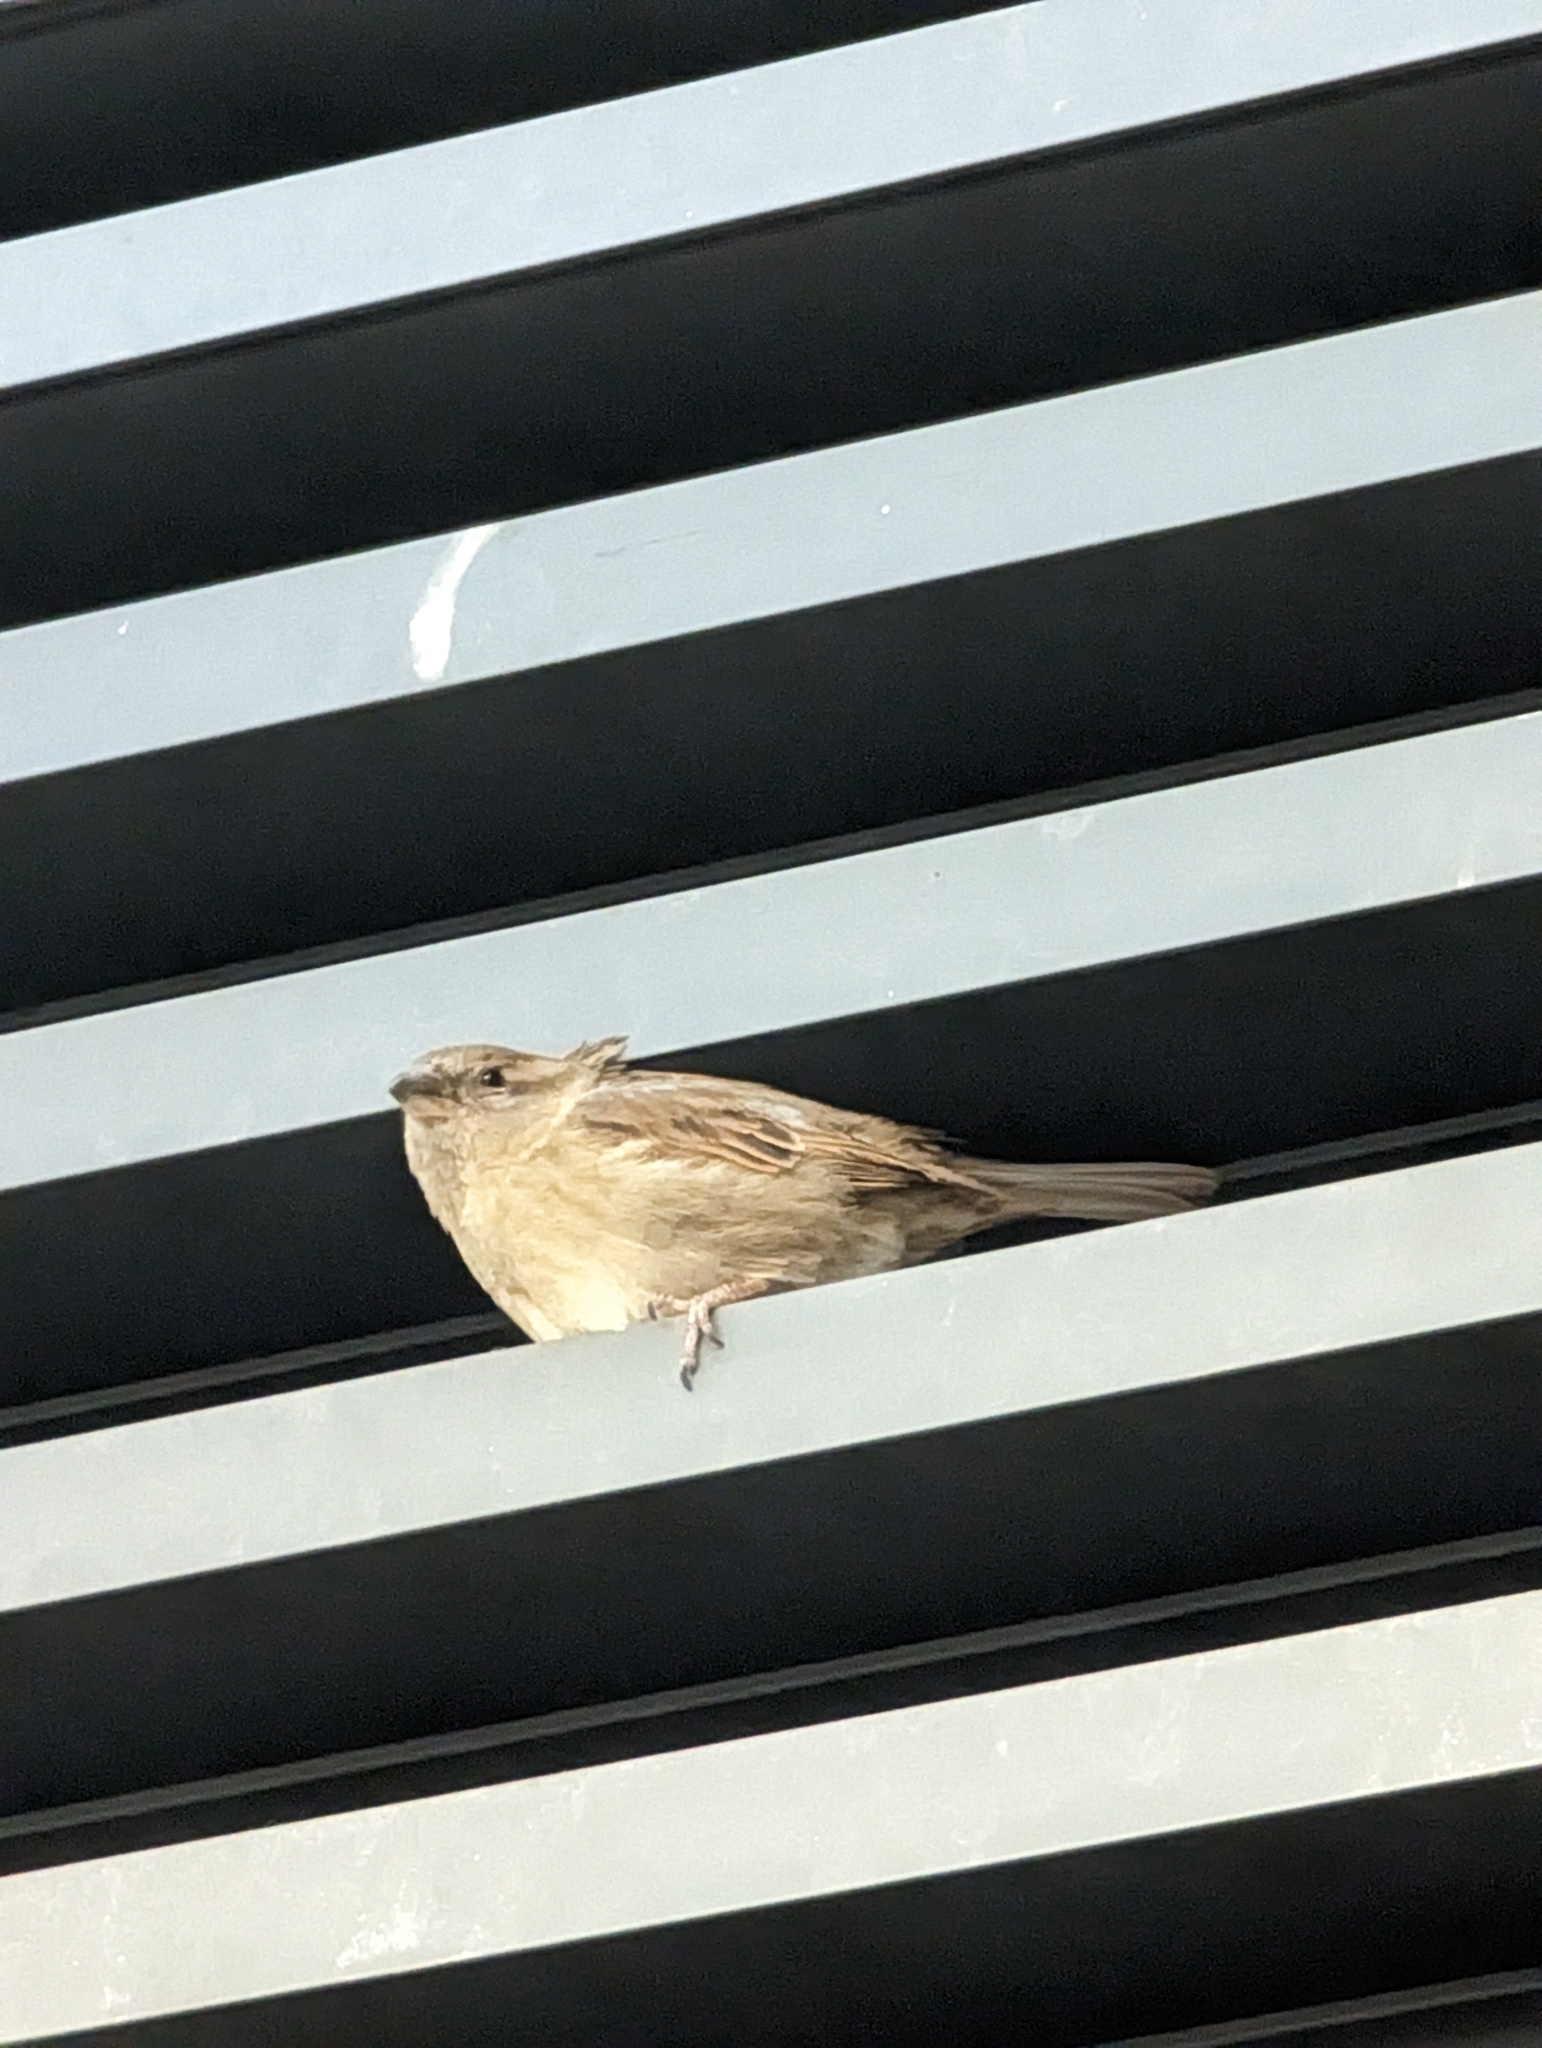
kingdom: Animalia
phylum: Chordata
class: Aves
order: Passeriformes
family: Passeridae
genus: Passer
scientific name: Passer domesticus
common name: House sparrow
